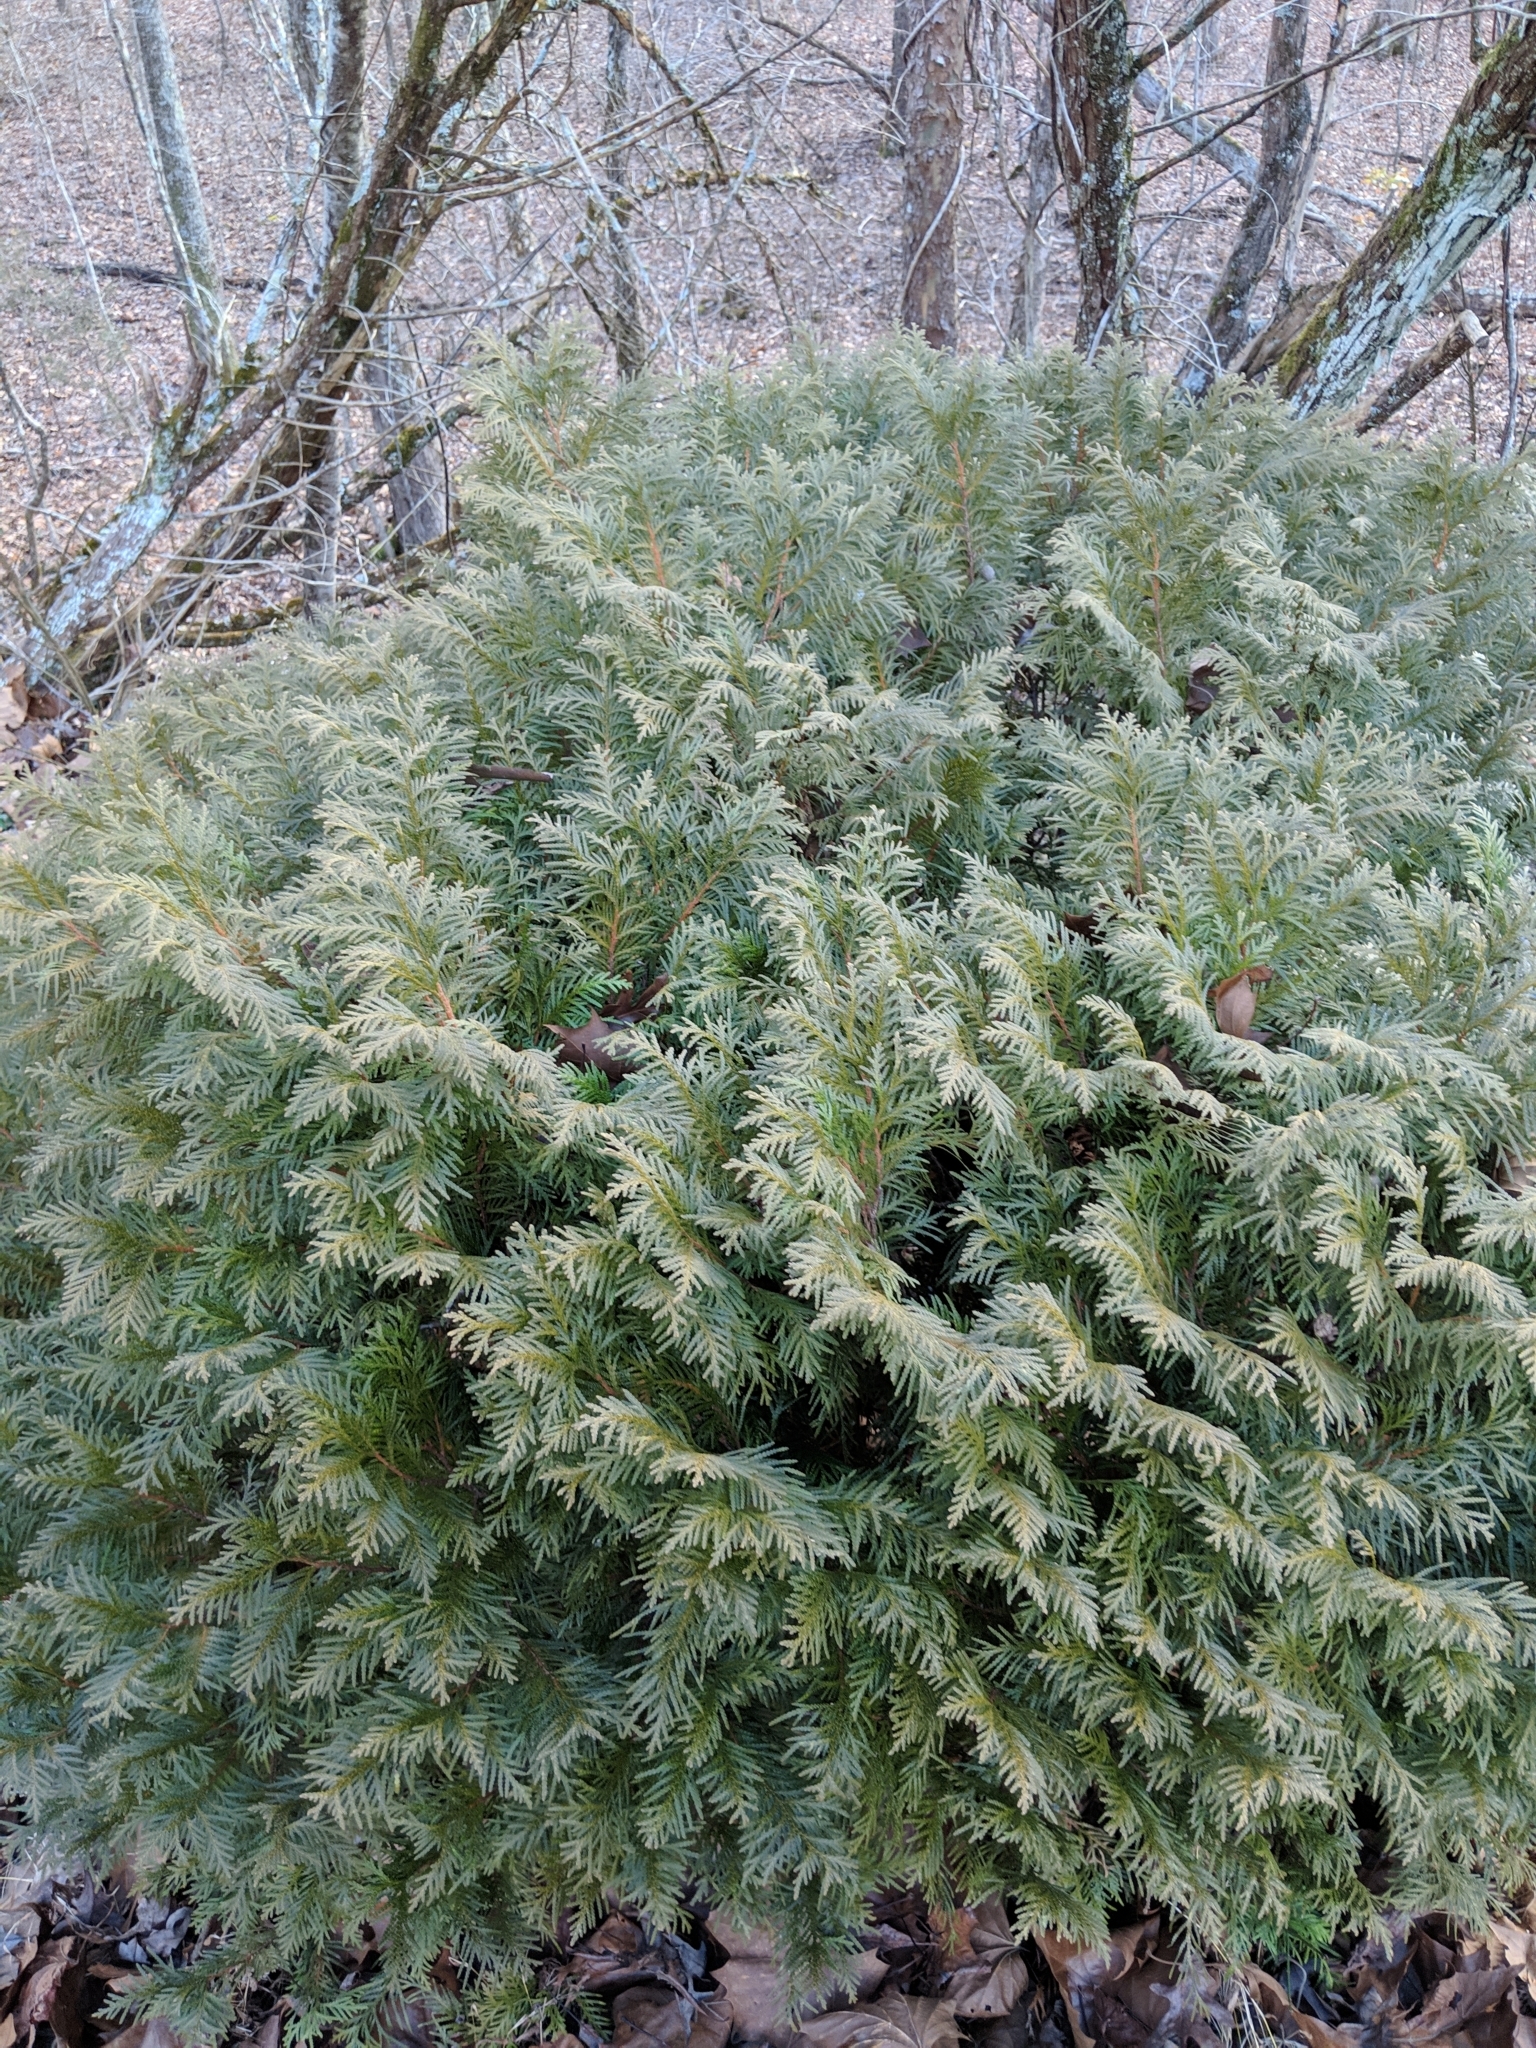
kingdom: Plantae
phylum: Tracheophyta
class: Pinopsida
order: Pinales
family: Cupressaceae
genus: Thuja
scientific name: Thuja occidentalis
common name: Northern white-cedar
